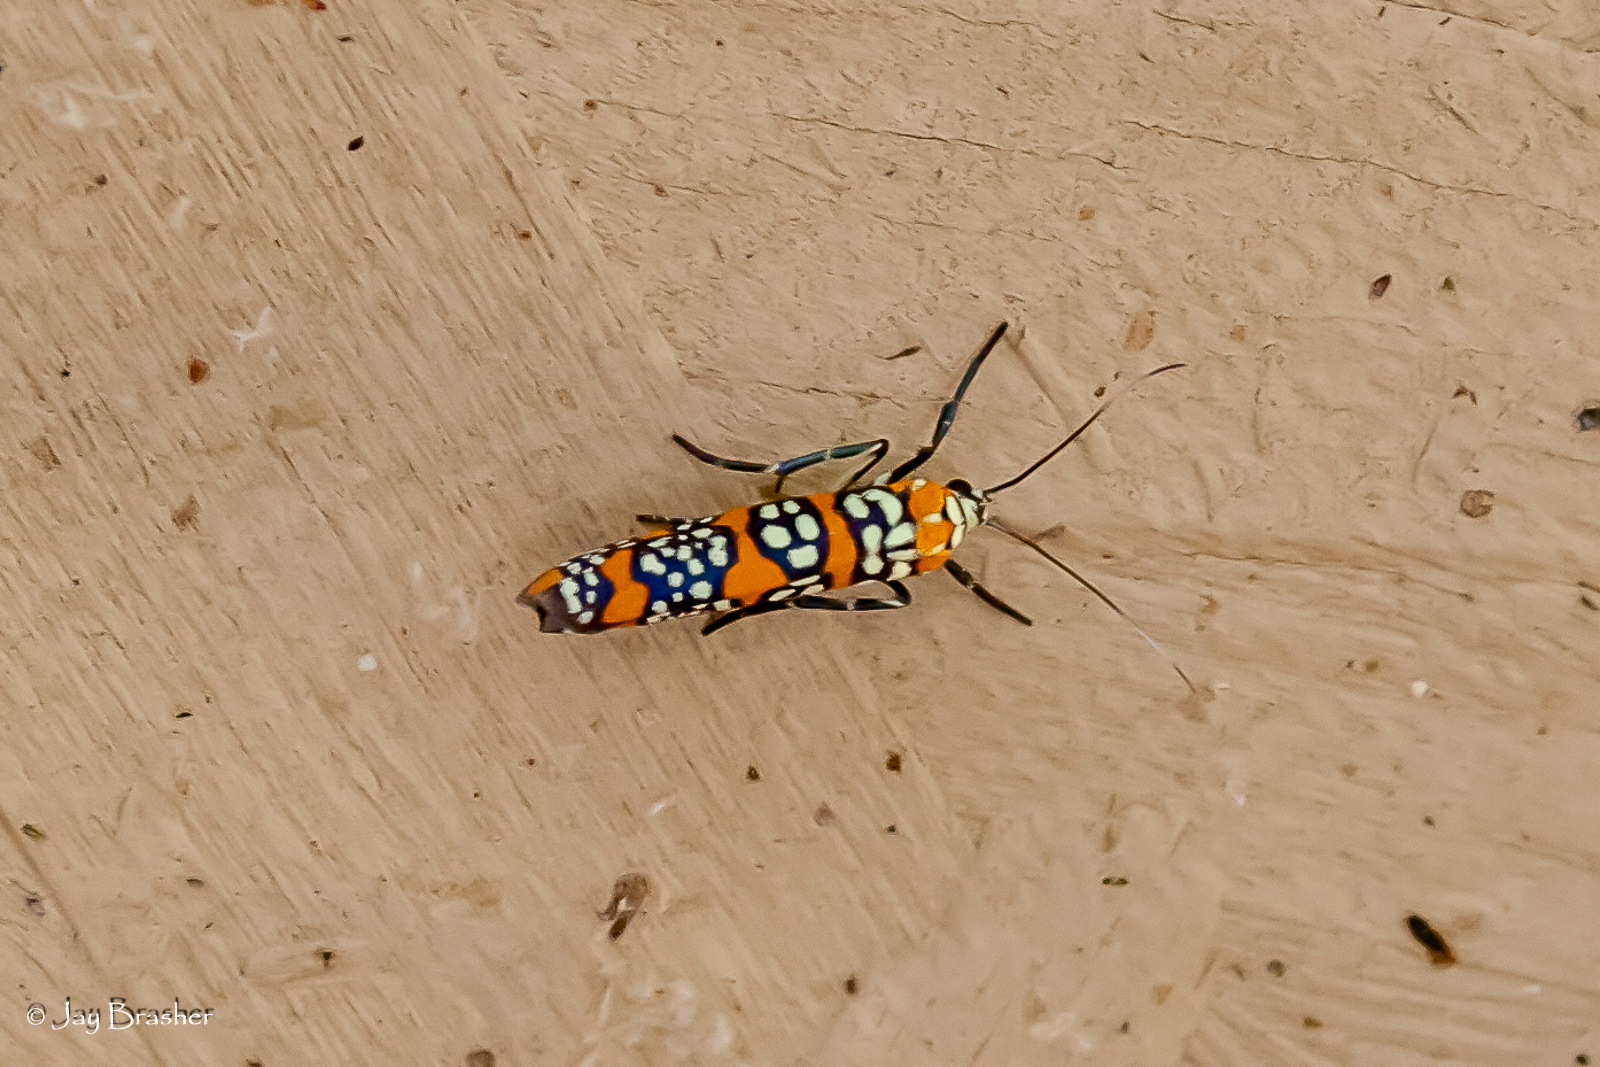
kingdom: Animalia
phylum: Arthropoda
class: Insecta
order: Lepidoptera
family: Attevidae
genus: Atteva
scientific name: Atteva punctella
